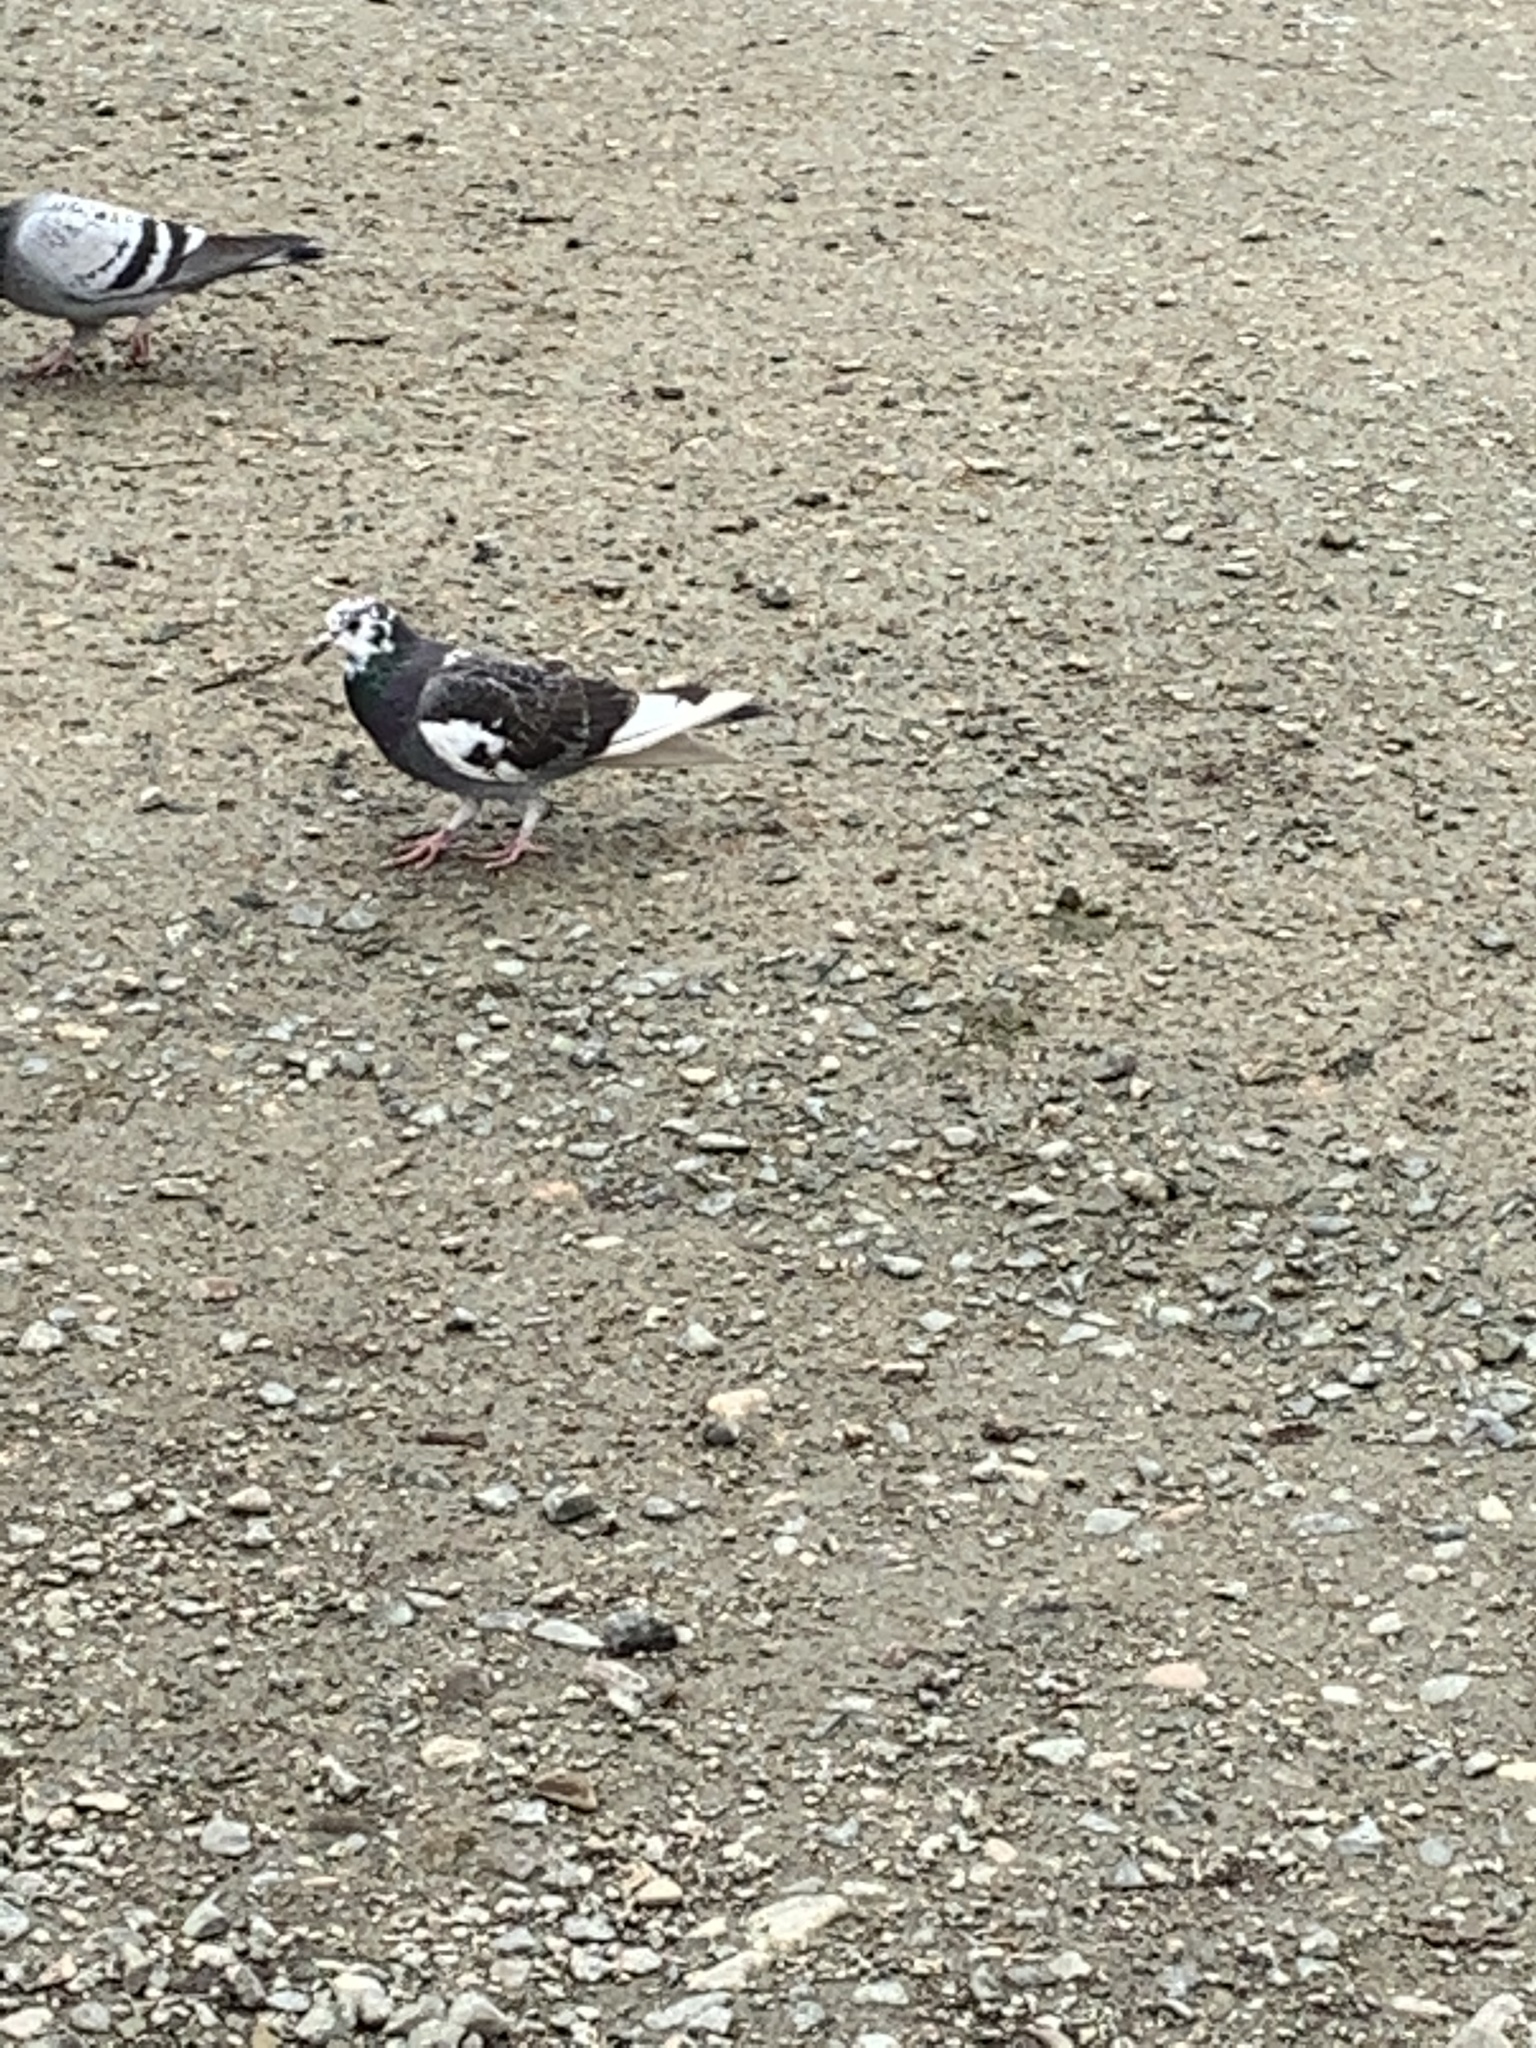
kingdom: Animalia
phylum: Chordata
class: Aves
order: Columbiformes
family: Columbidae
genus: Columba
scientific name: Columba livia
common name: Rock pigeon
